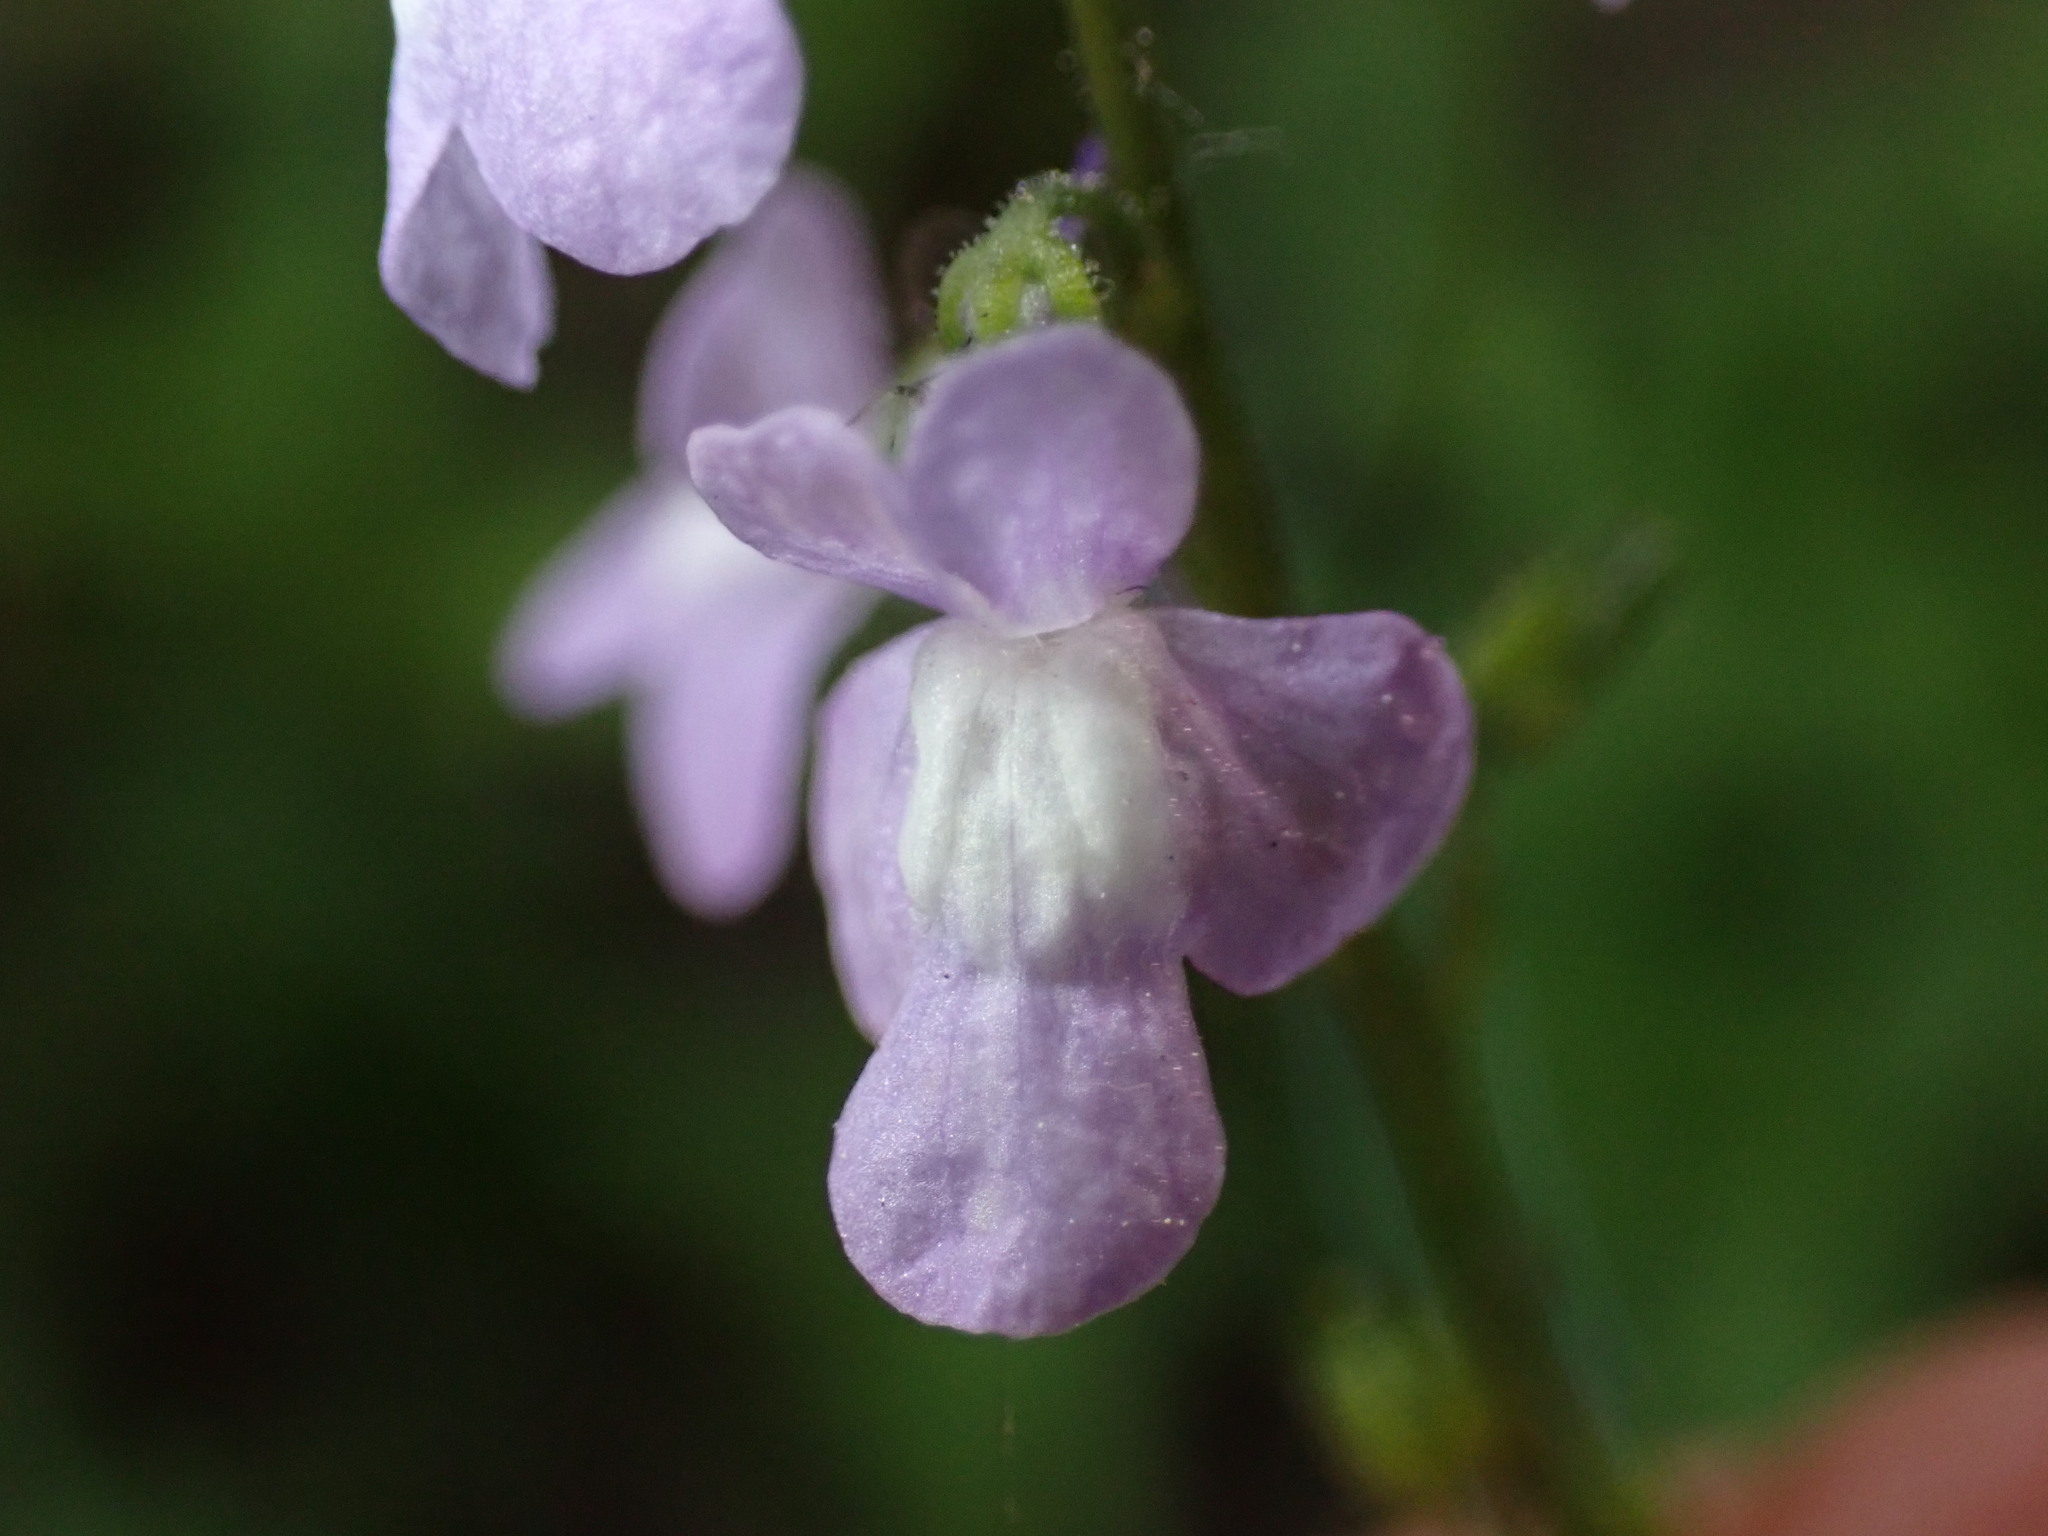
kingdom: Plantae
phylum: Tracheophyta
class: Magnoliopsida
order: Lamiales
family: Plantaginaceae
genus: Nuttallanthus
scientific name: Nuttallanthus canadensis
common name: Blue toadflax
